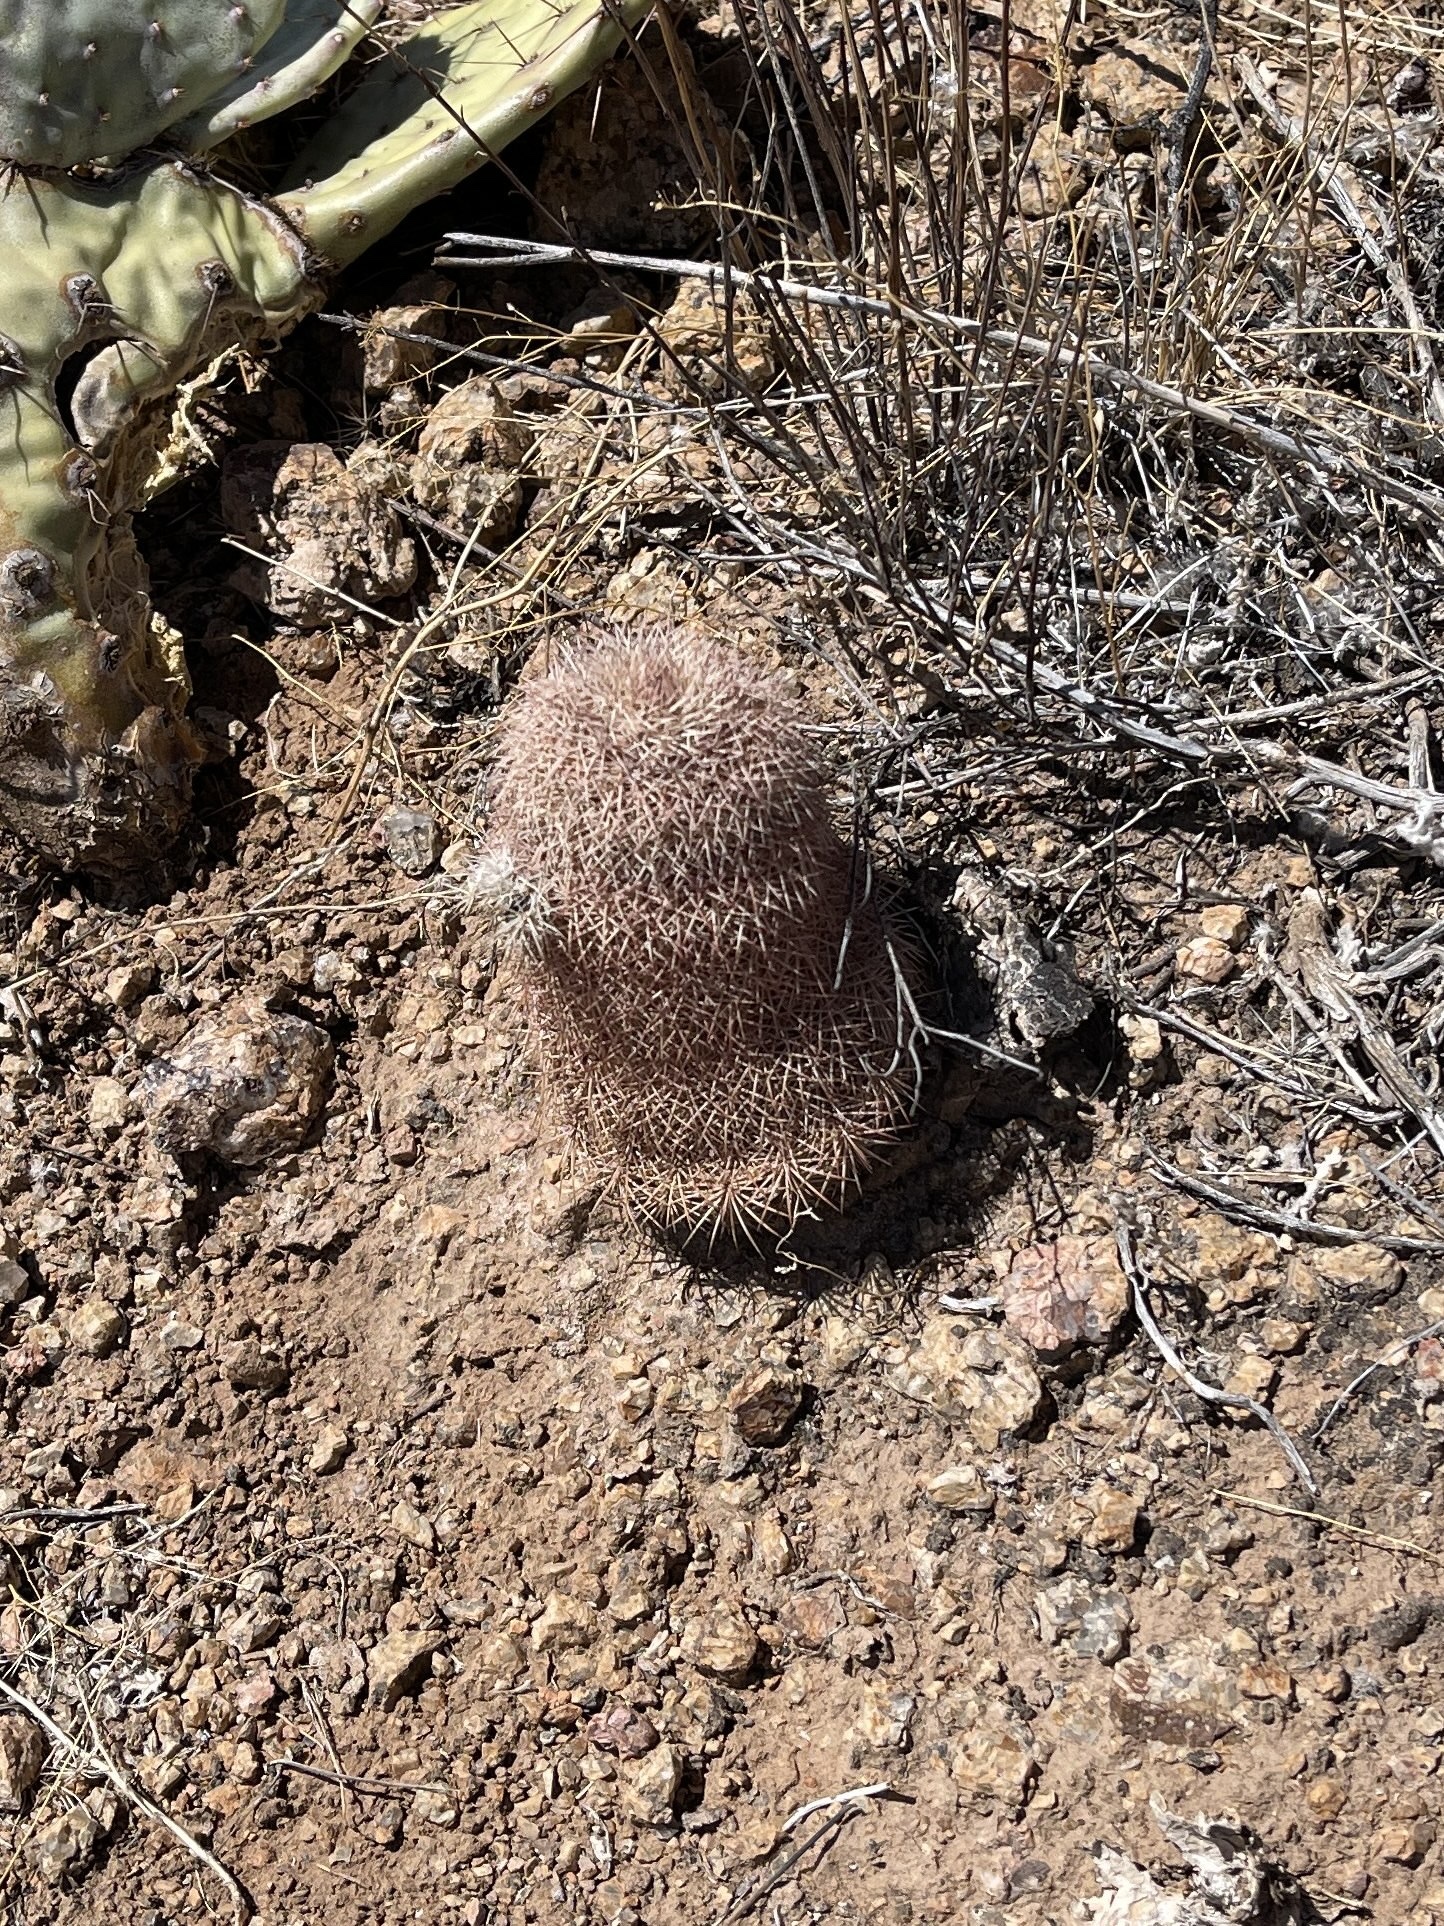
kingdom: Plantae
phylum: Tracheophyta
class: Magnoliopsida
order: Caryophyllales
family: Cactaceae
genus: Echinocereus
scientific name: Echinocereus dasyacanthus
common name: Spiny hedgehog cactus
